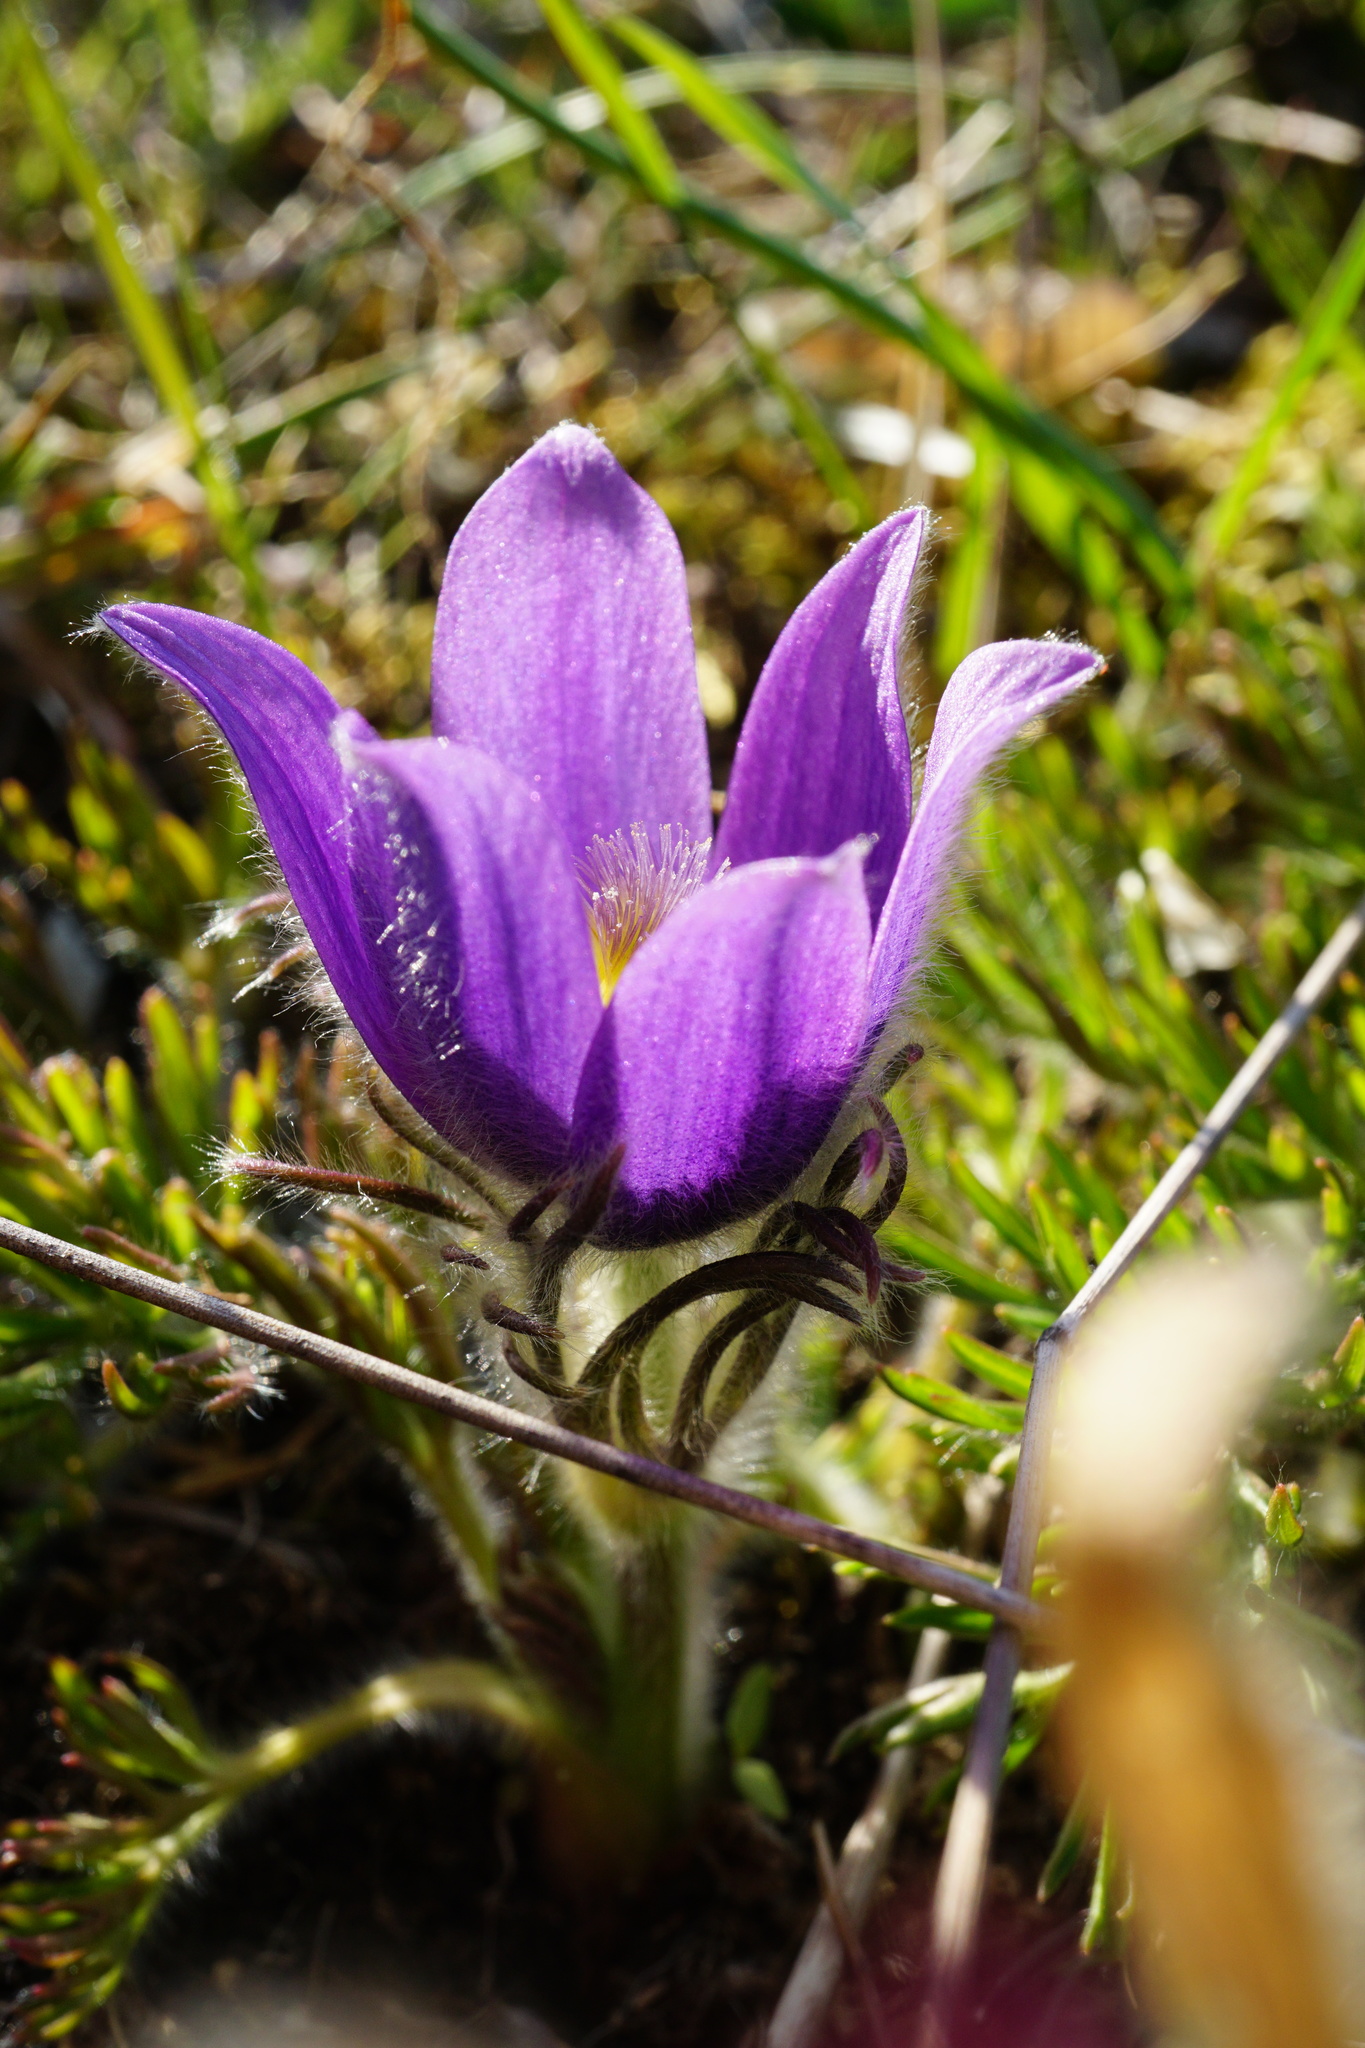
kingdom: Plantae
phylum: Tracheophyta
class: Magnoliopsida
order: Ranunculales
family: Ranunculaceae
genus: Pulsatilla
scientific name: Pulsatilla grandis
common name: Greater pasque flower
